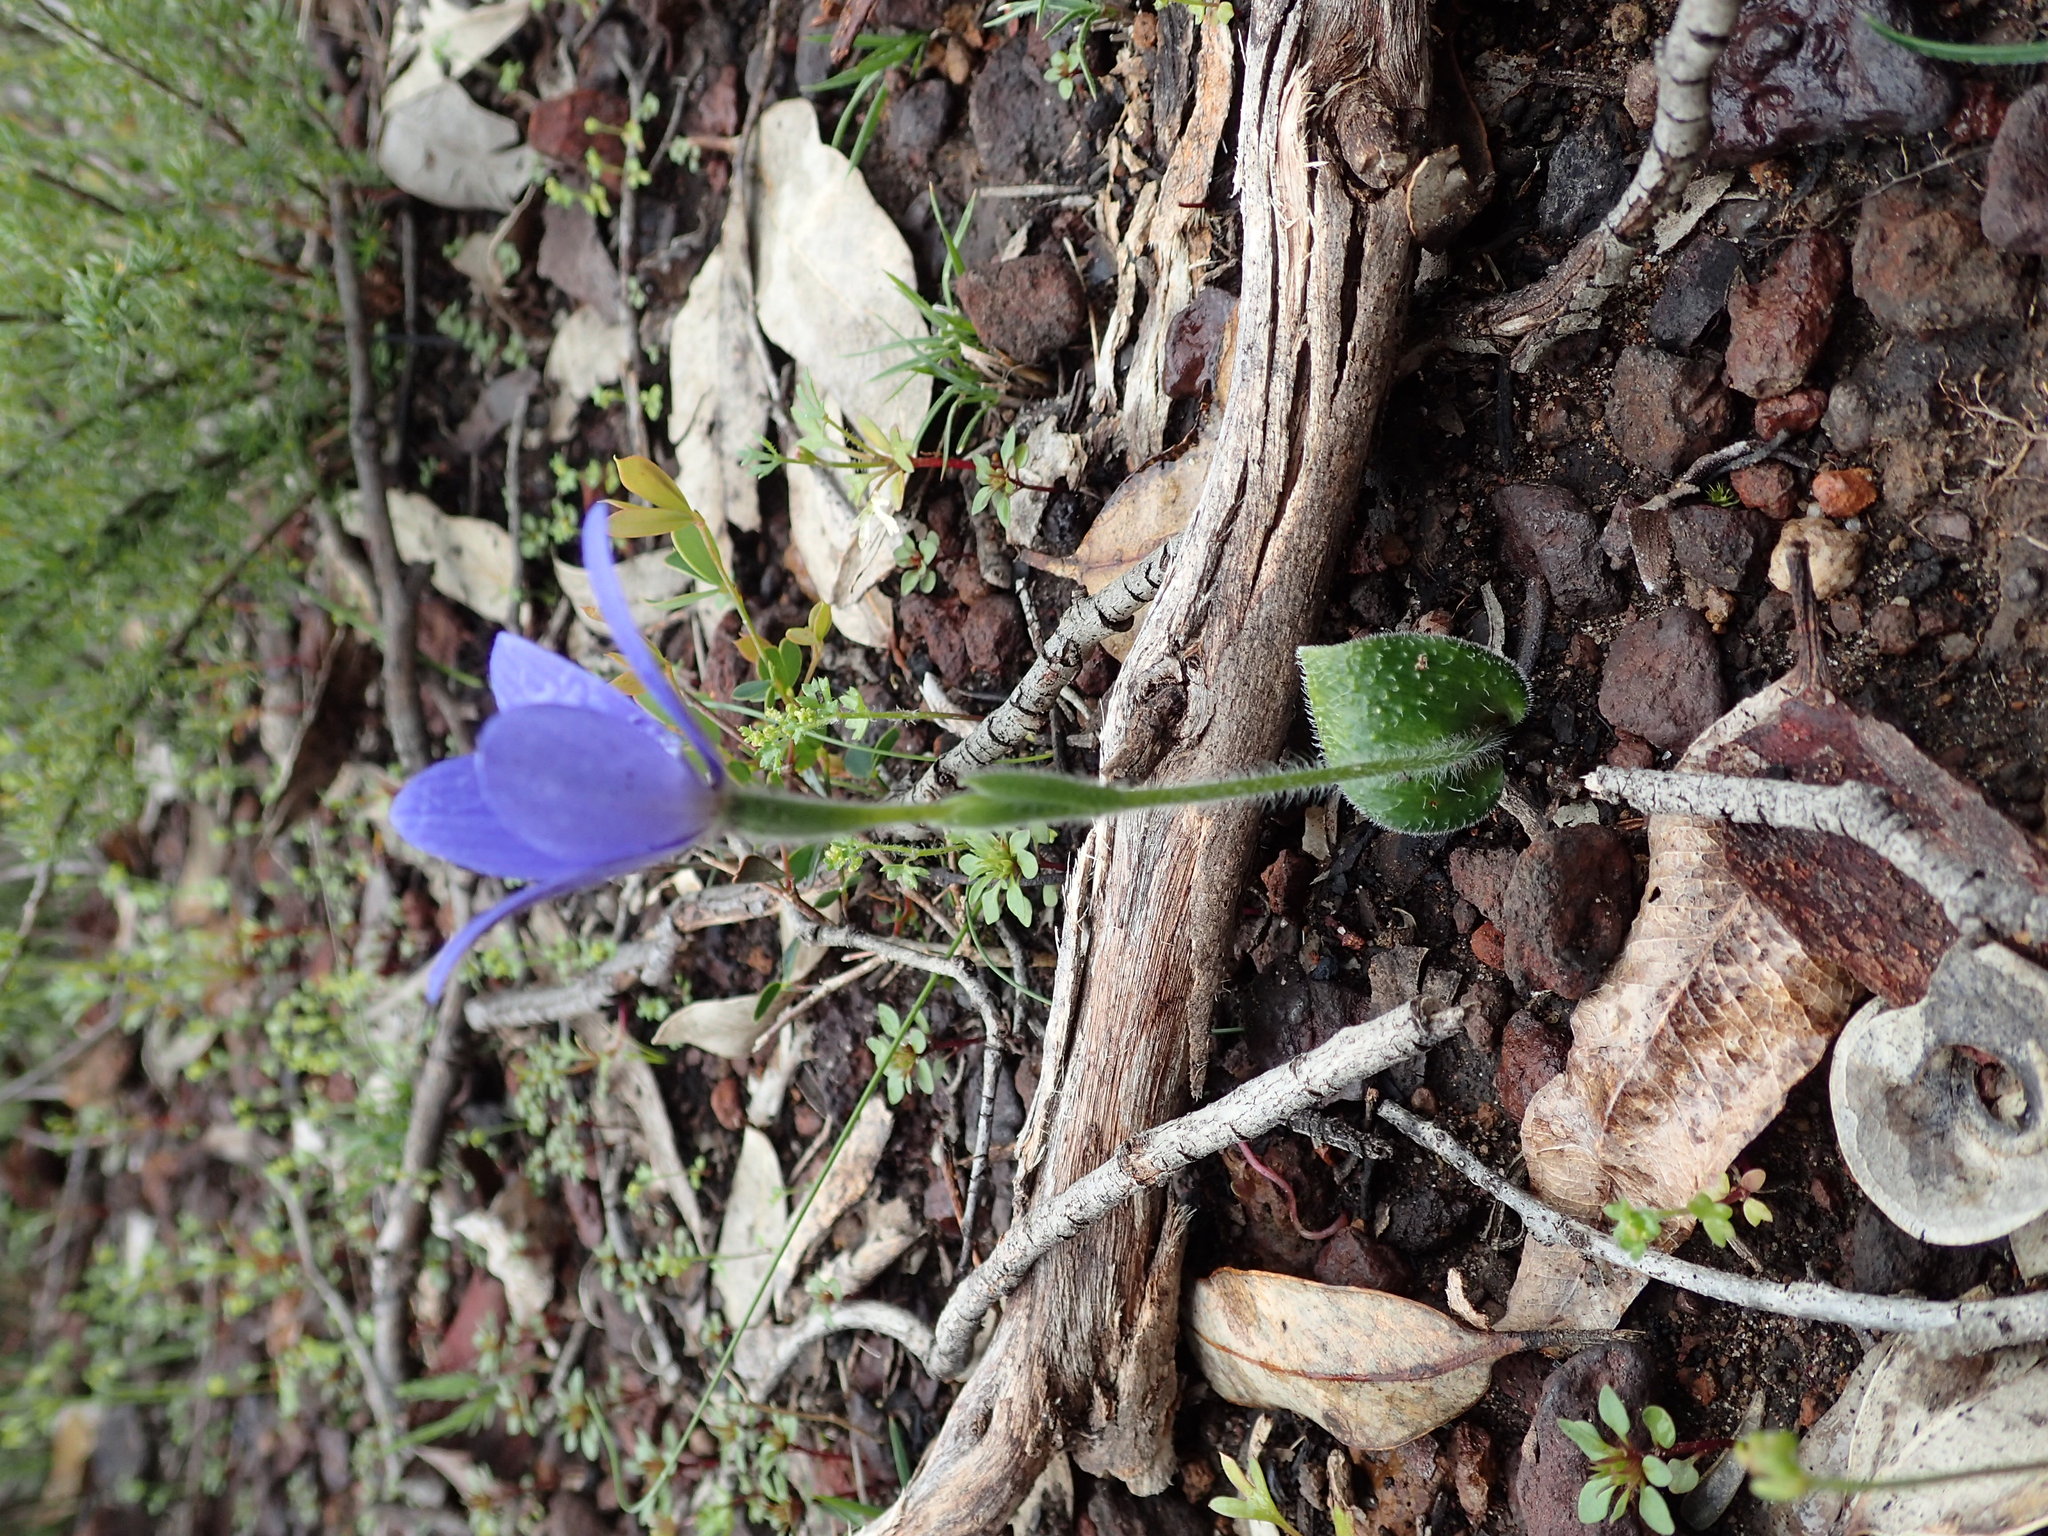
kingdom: Plantae
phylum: Tracheophyta
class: Liliopsida
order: Asparagales
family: Orchidaceae
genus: Caladenia
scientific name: Caladenia gemmata
